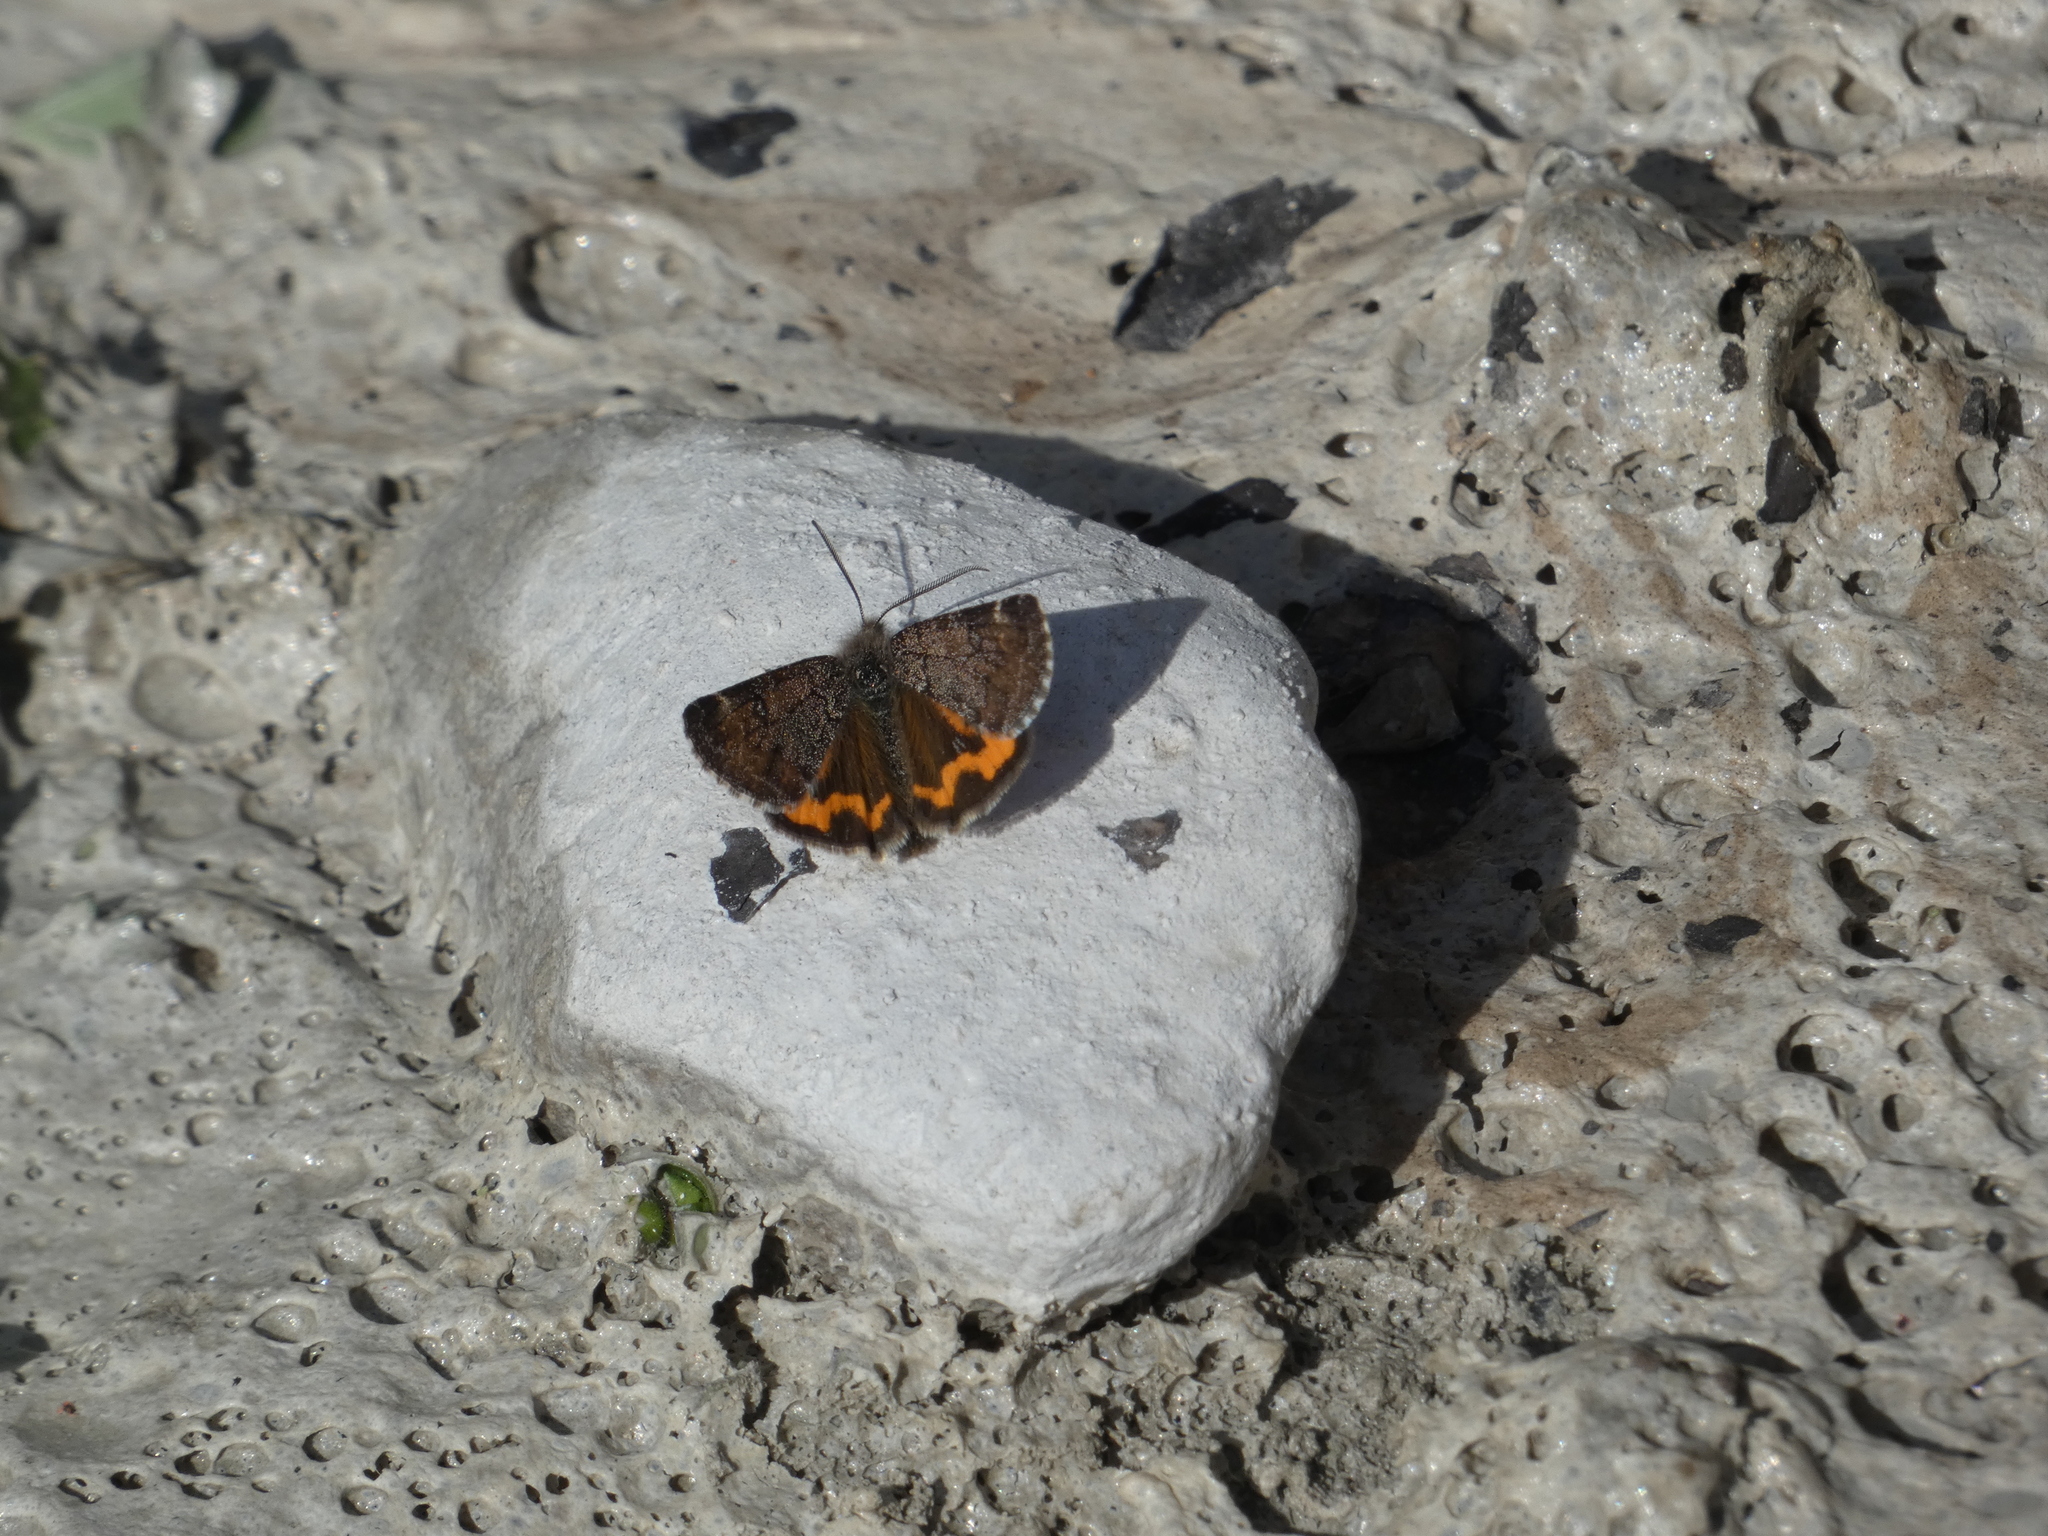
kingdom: Animalia
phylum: Arthropoda
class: Insecta
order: Lepidoptera
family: Geometridae
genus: Archiearis
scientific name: Archiearis notha
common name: Light orange underwing
